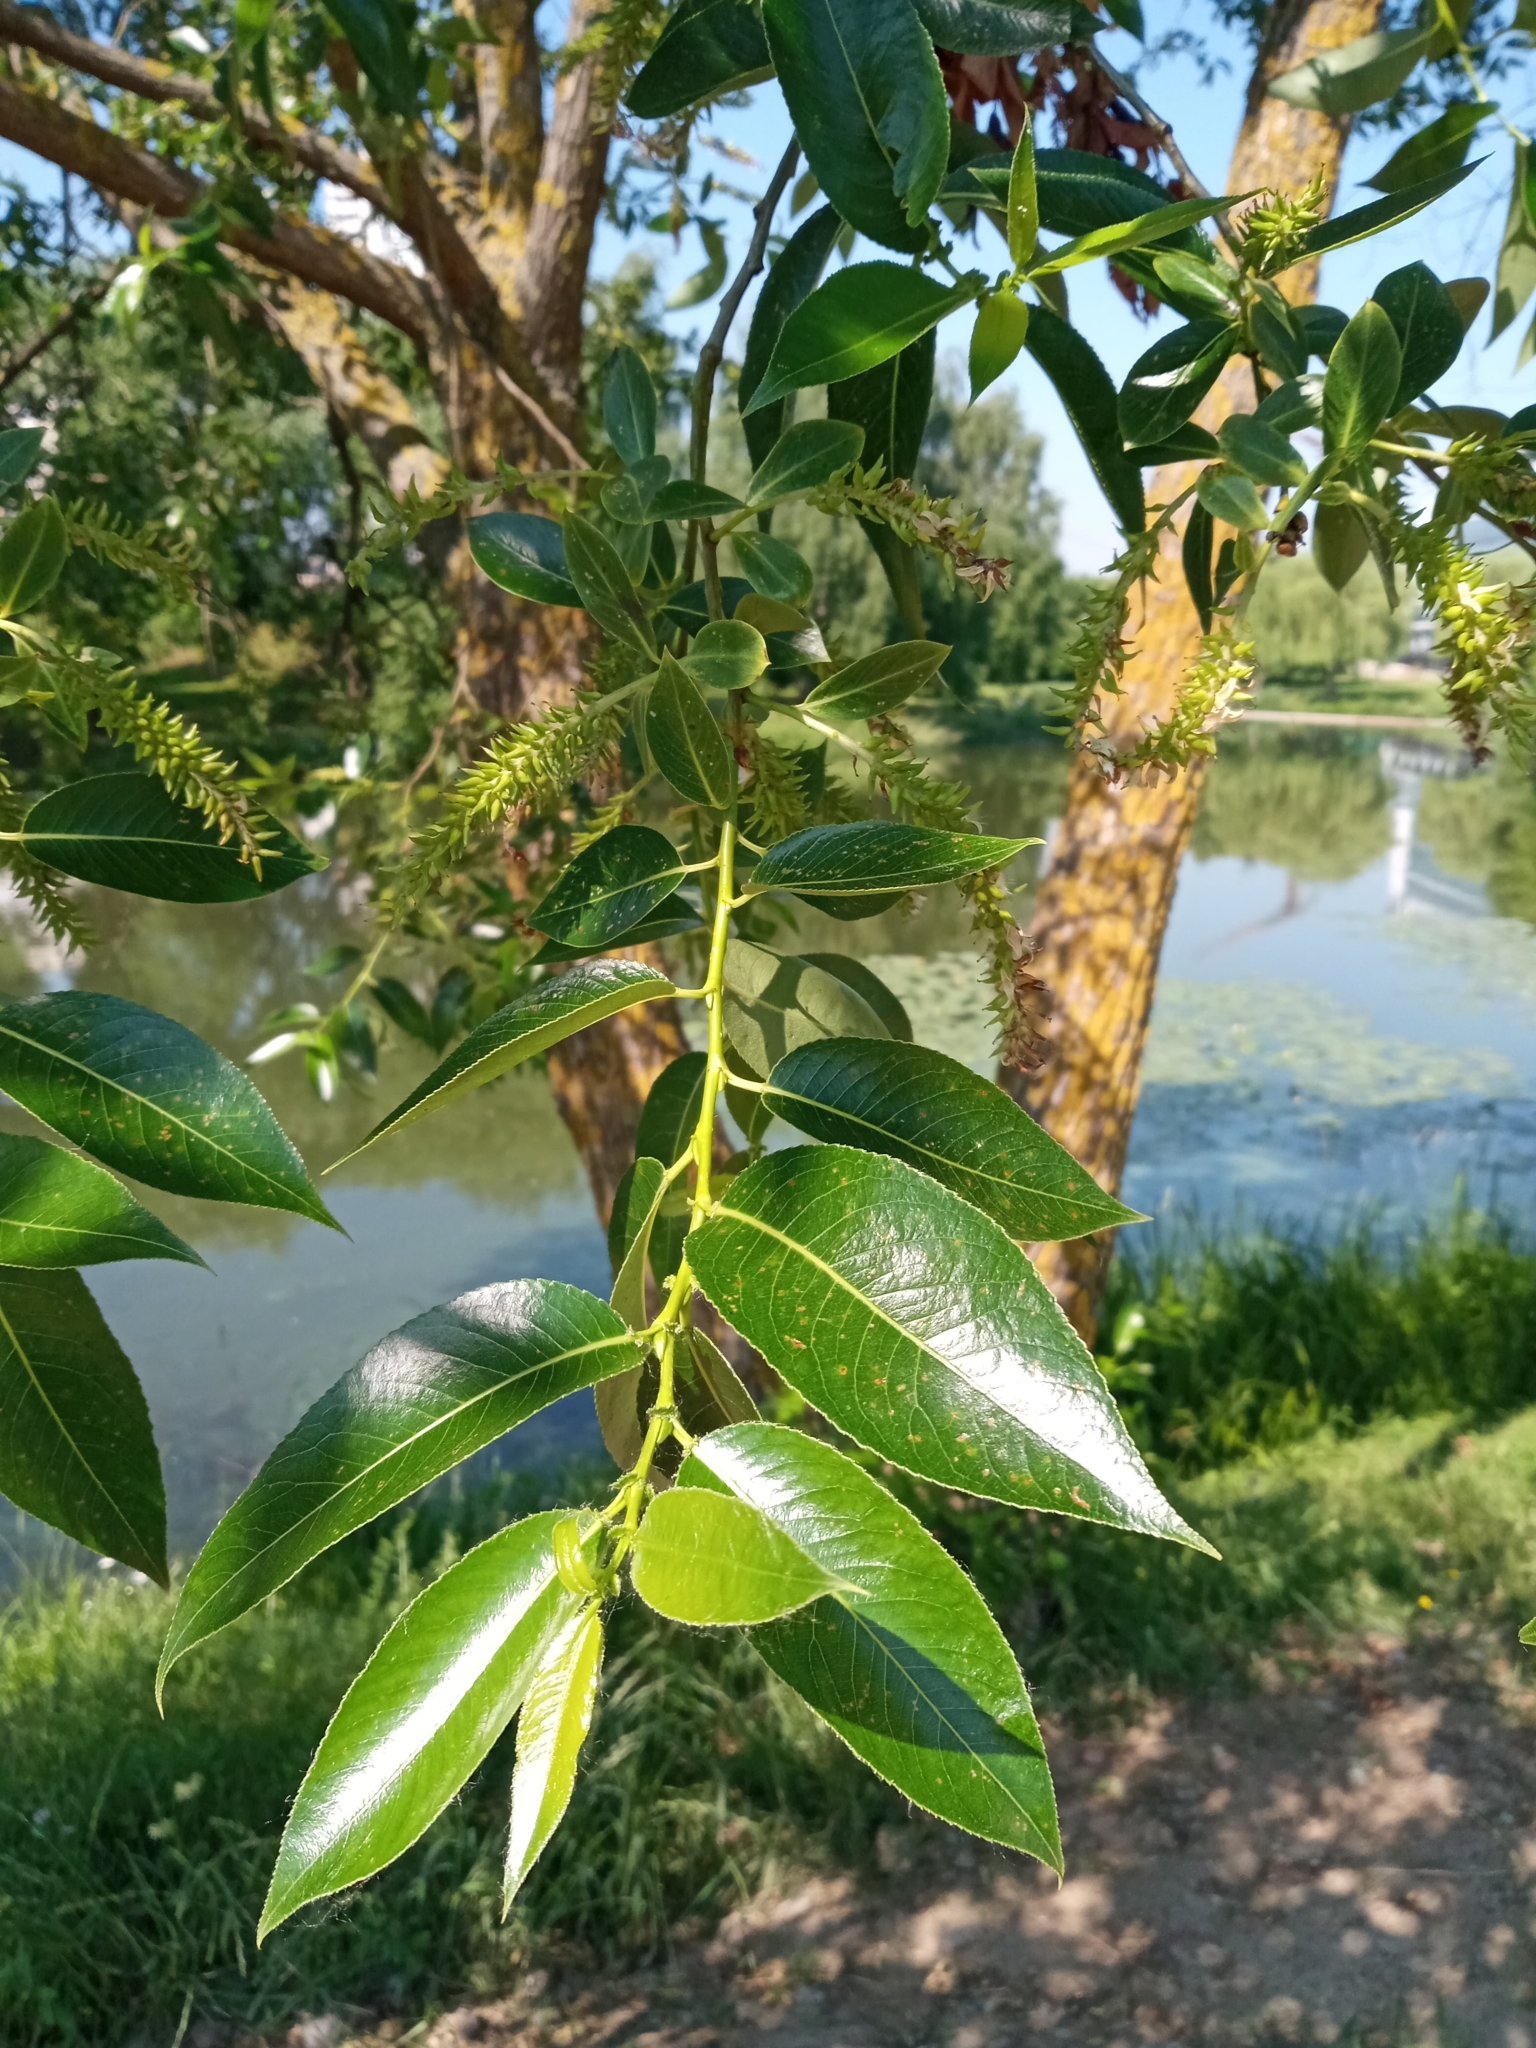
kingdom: Plantae
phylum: Tracheophyta
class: Magnoliopsida
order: Malpighiales
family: Salicaceae
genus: Salix
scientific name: Salix pentandra
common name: Bay willow
